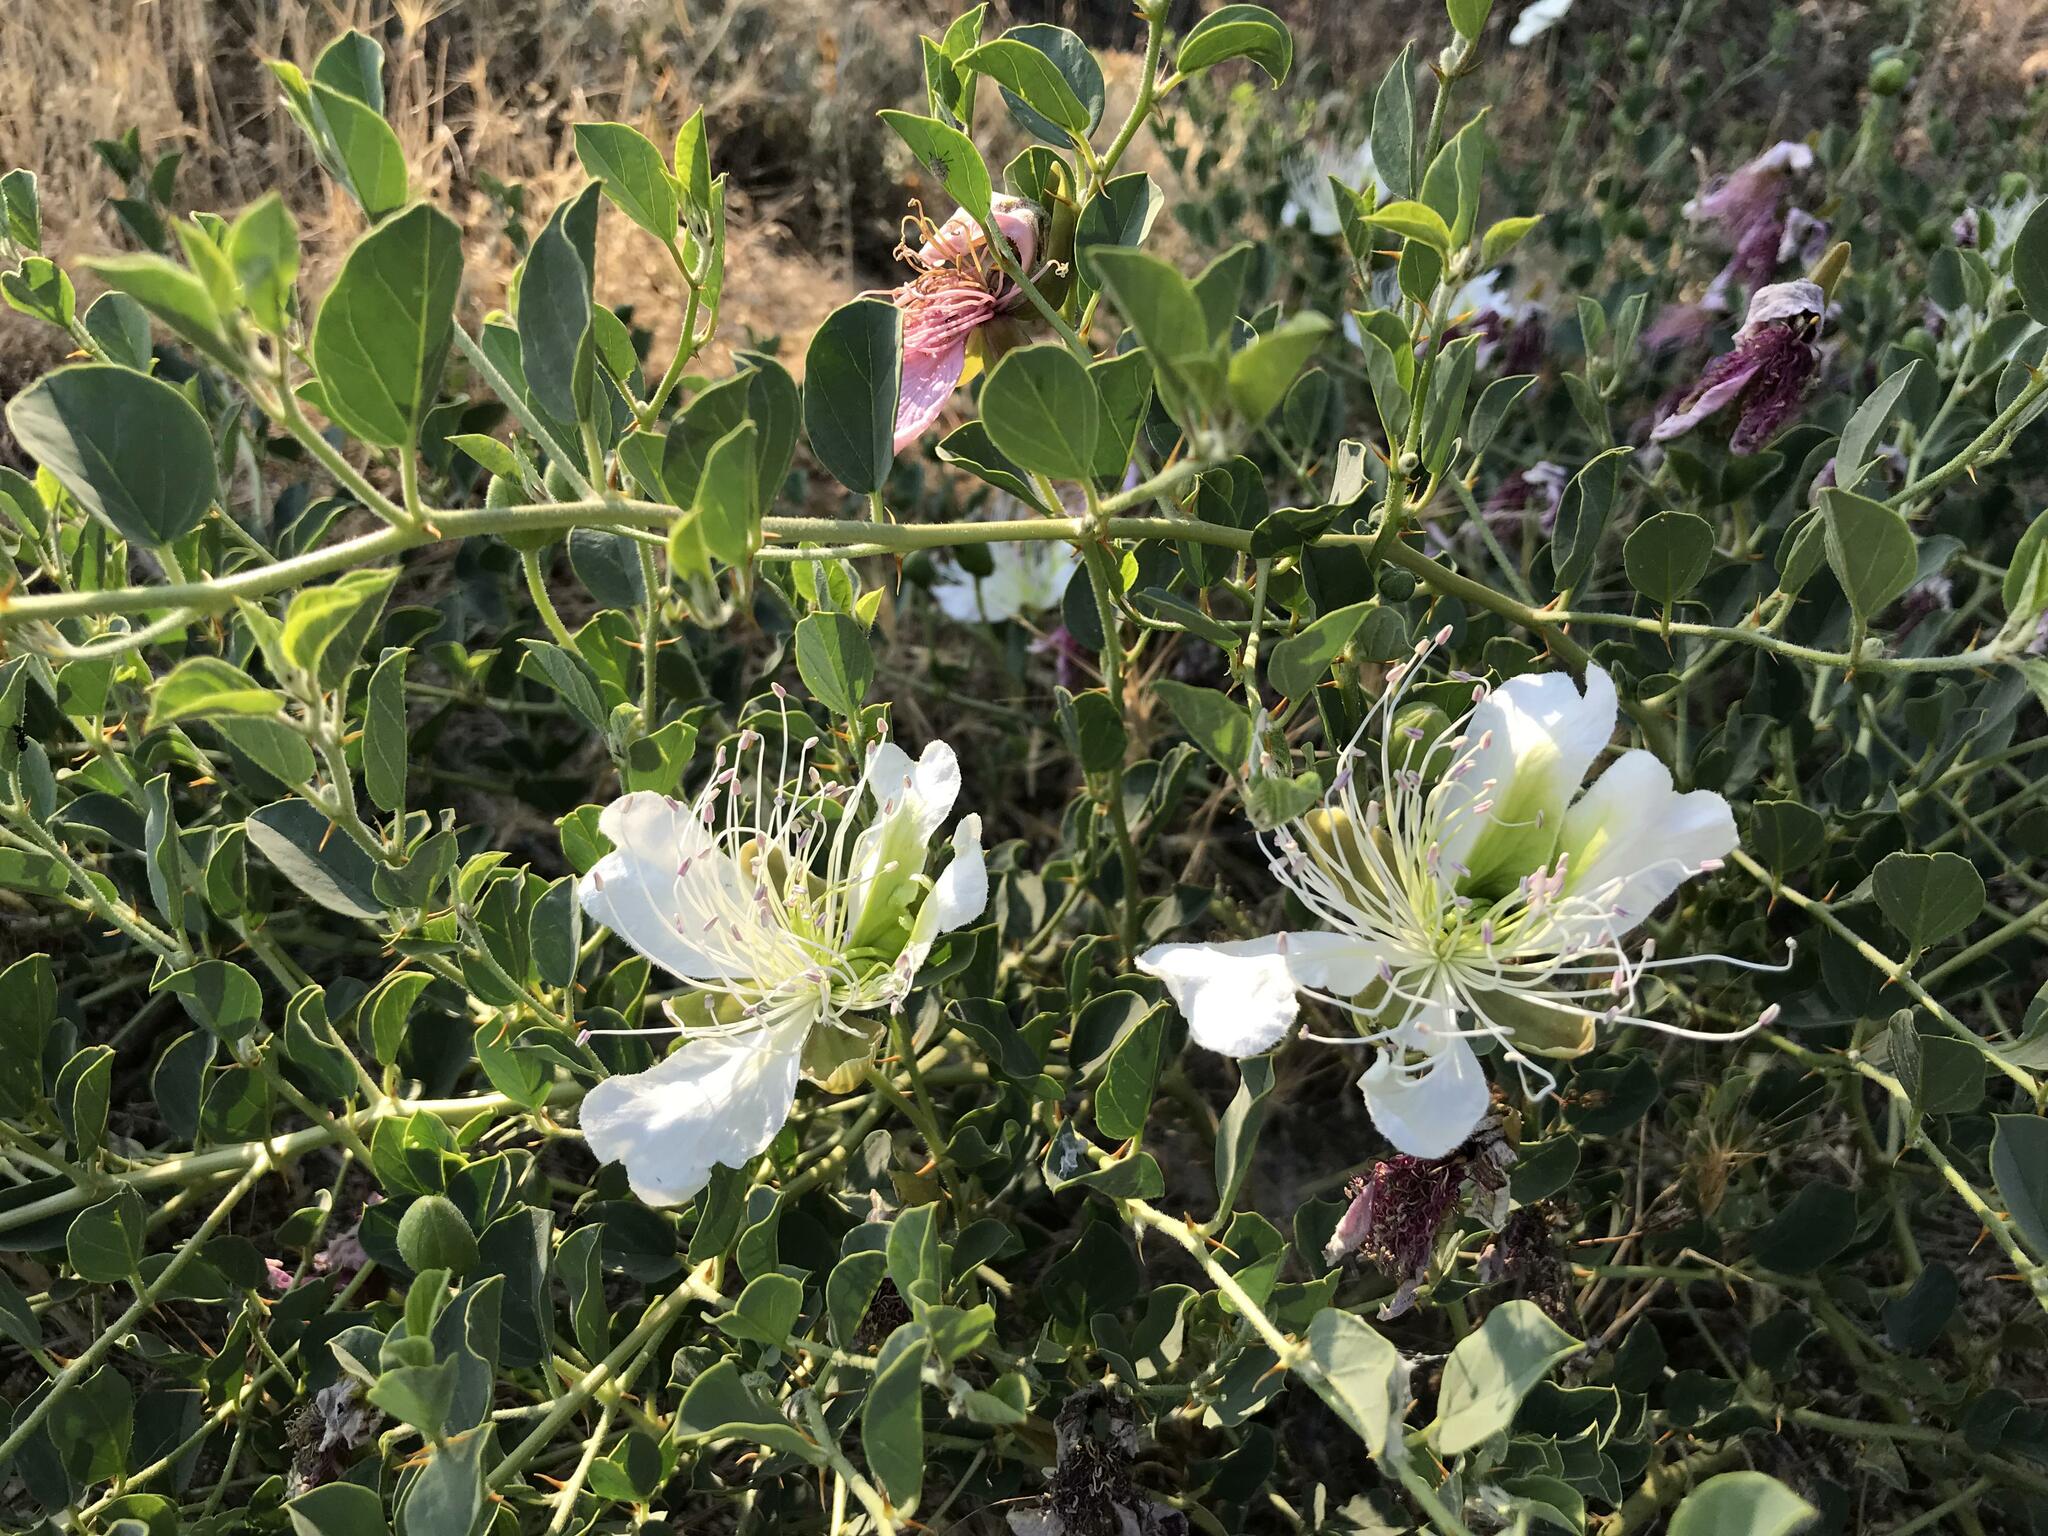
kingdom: Plantae
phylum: Tracheophyta
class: Magnoliopsida
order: Brassicales
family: Capparaceae
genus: Capparis
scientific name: Capparis spinosa
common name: Caper
